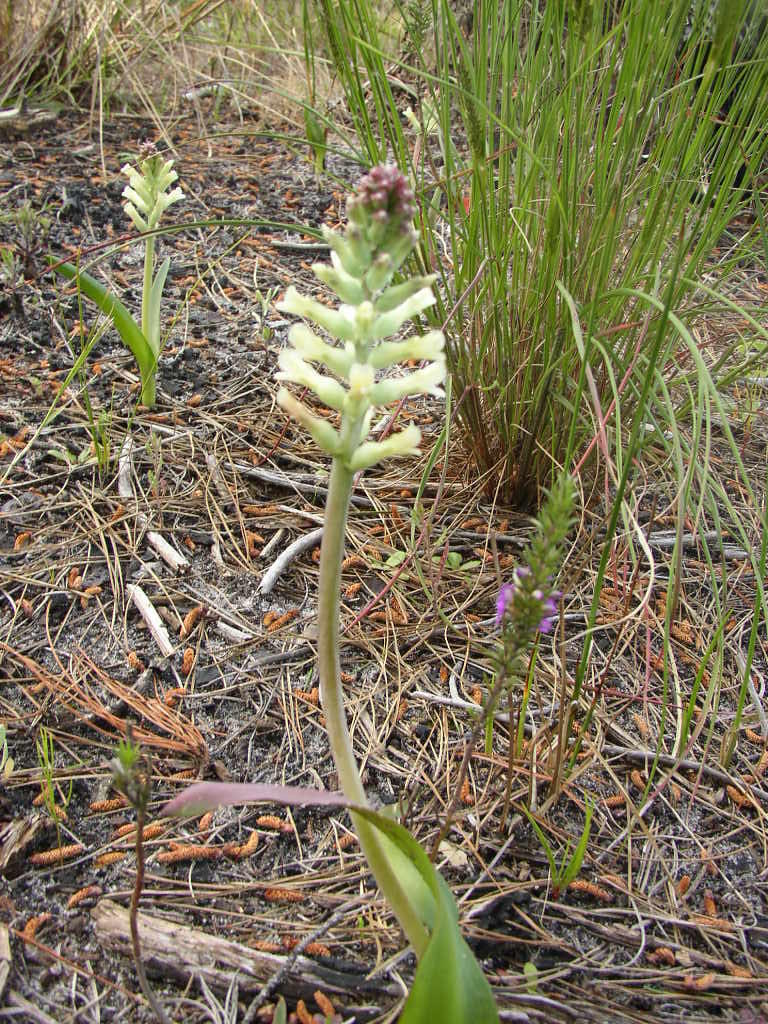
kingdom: Plantae
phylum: Tracheophyta
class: Liliopsida
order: Asparagales
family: Asparagaceae
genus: Lachenalia
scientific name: Lachenalia orchioides
